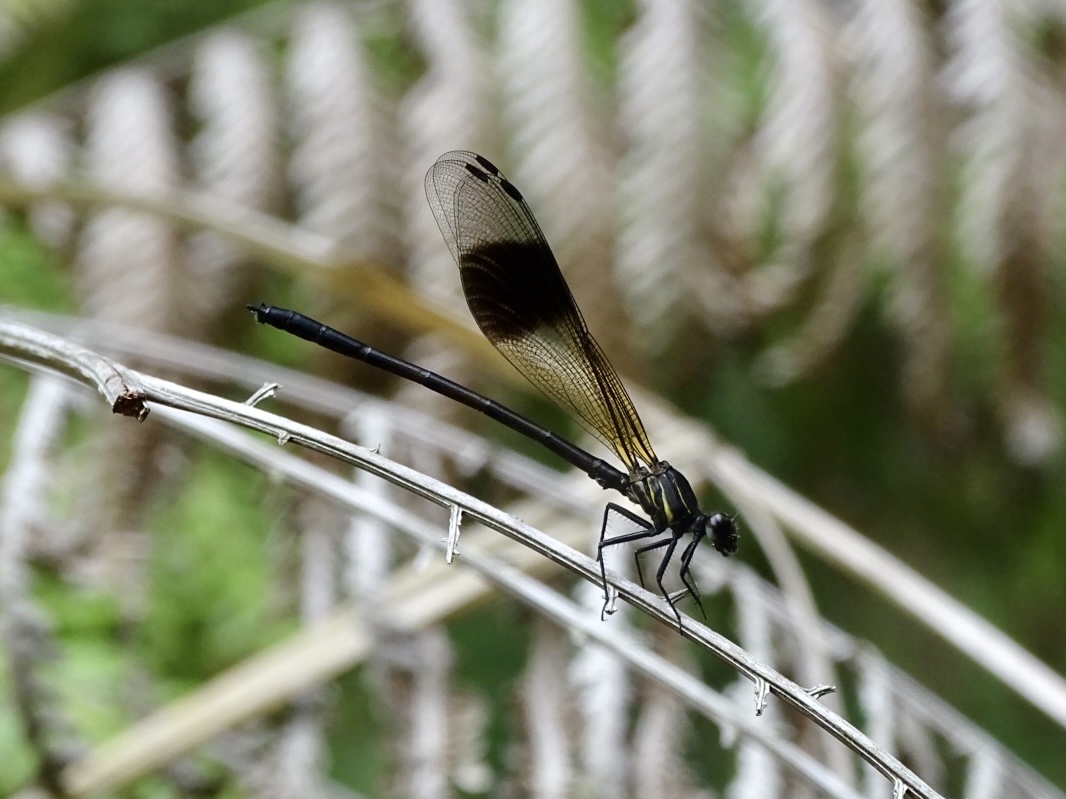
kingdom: Animalia
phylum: Arthropoda
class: Insecta
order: Odonata
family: Euphaeidae
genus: Euphaea
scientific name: Euphaea decorata
